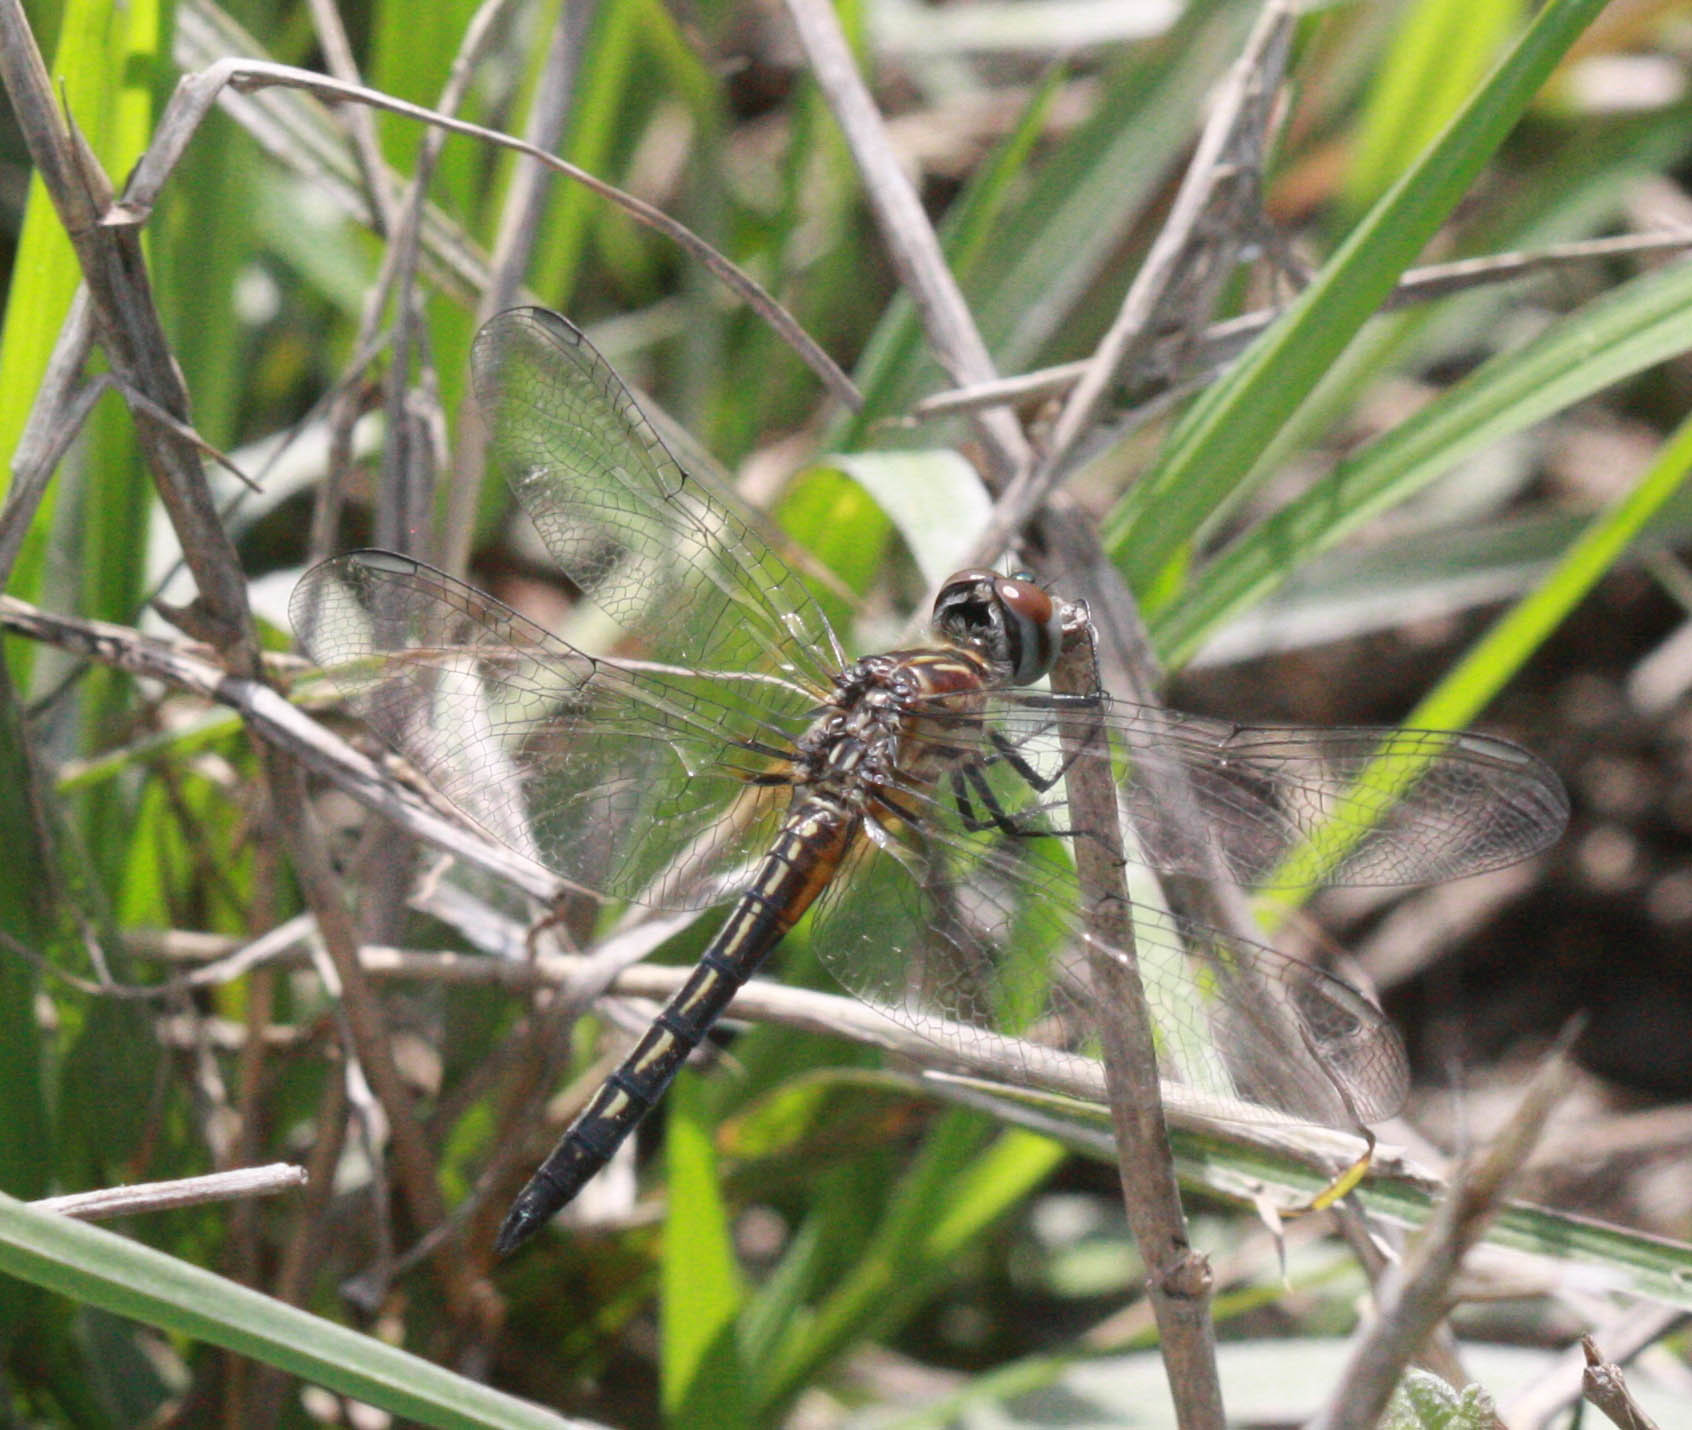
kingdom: Animalia
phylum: Arthropoda
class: Insecta
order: Odonata
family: Libellulidae
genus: Pachydiplax
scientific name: Pachydiplax longipennis
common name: Blue dasher
